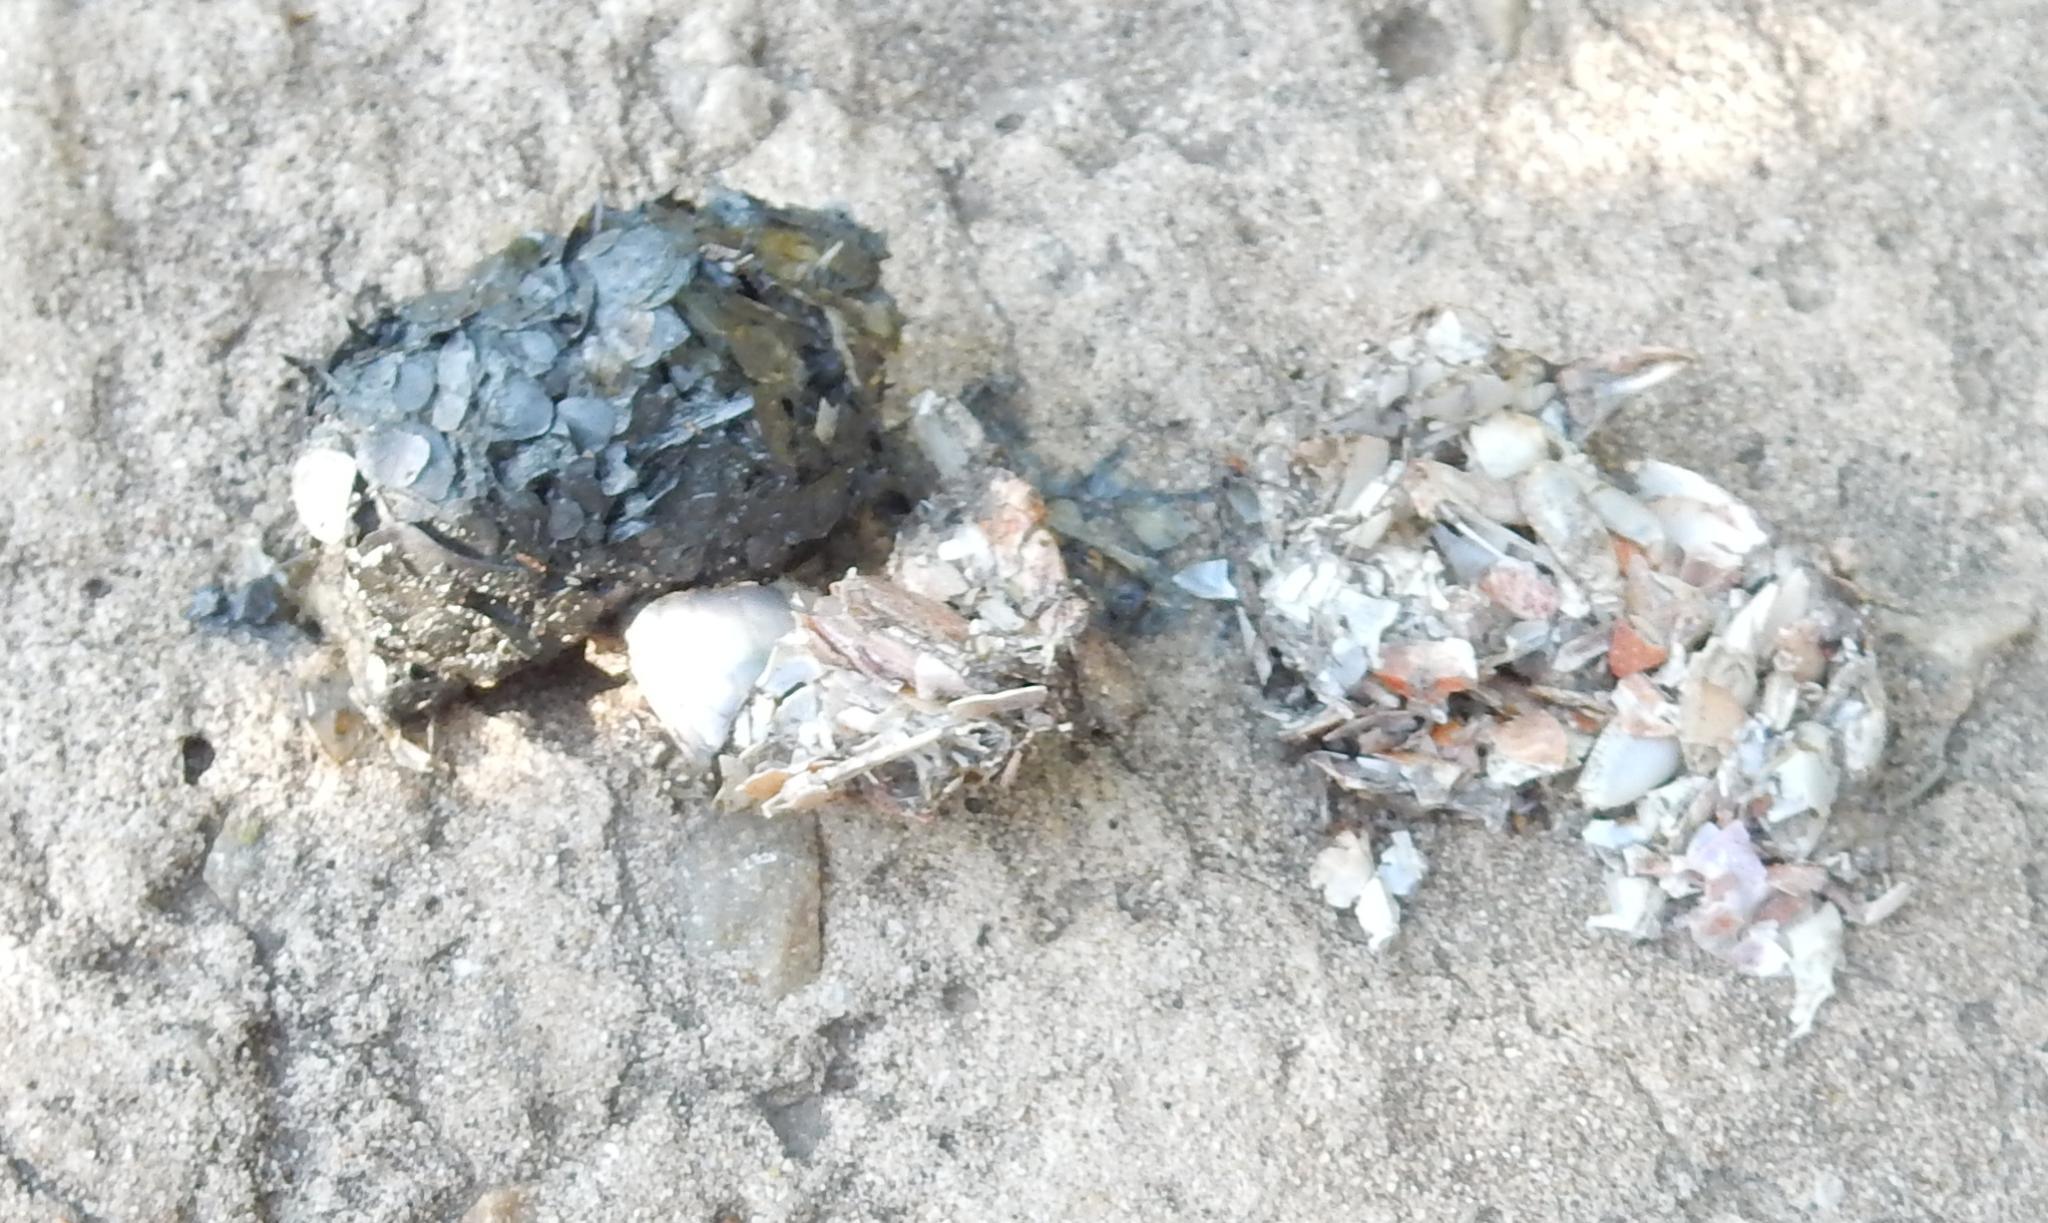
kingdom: Animalia
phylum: Chordata
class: Mammalia
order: Carnivora
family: Mustelidae
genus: Aonyx
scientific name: Aonyx capensis
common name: African clawless otter
